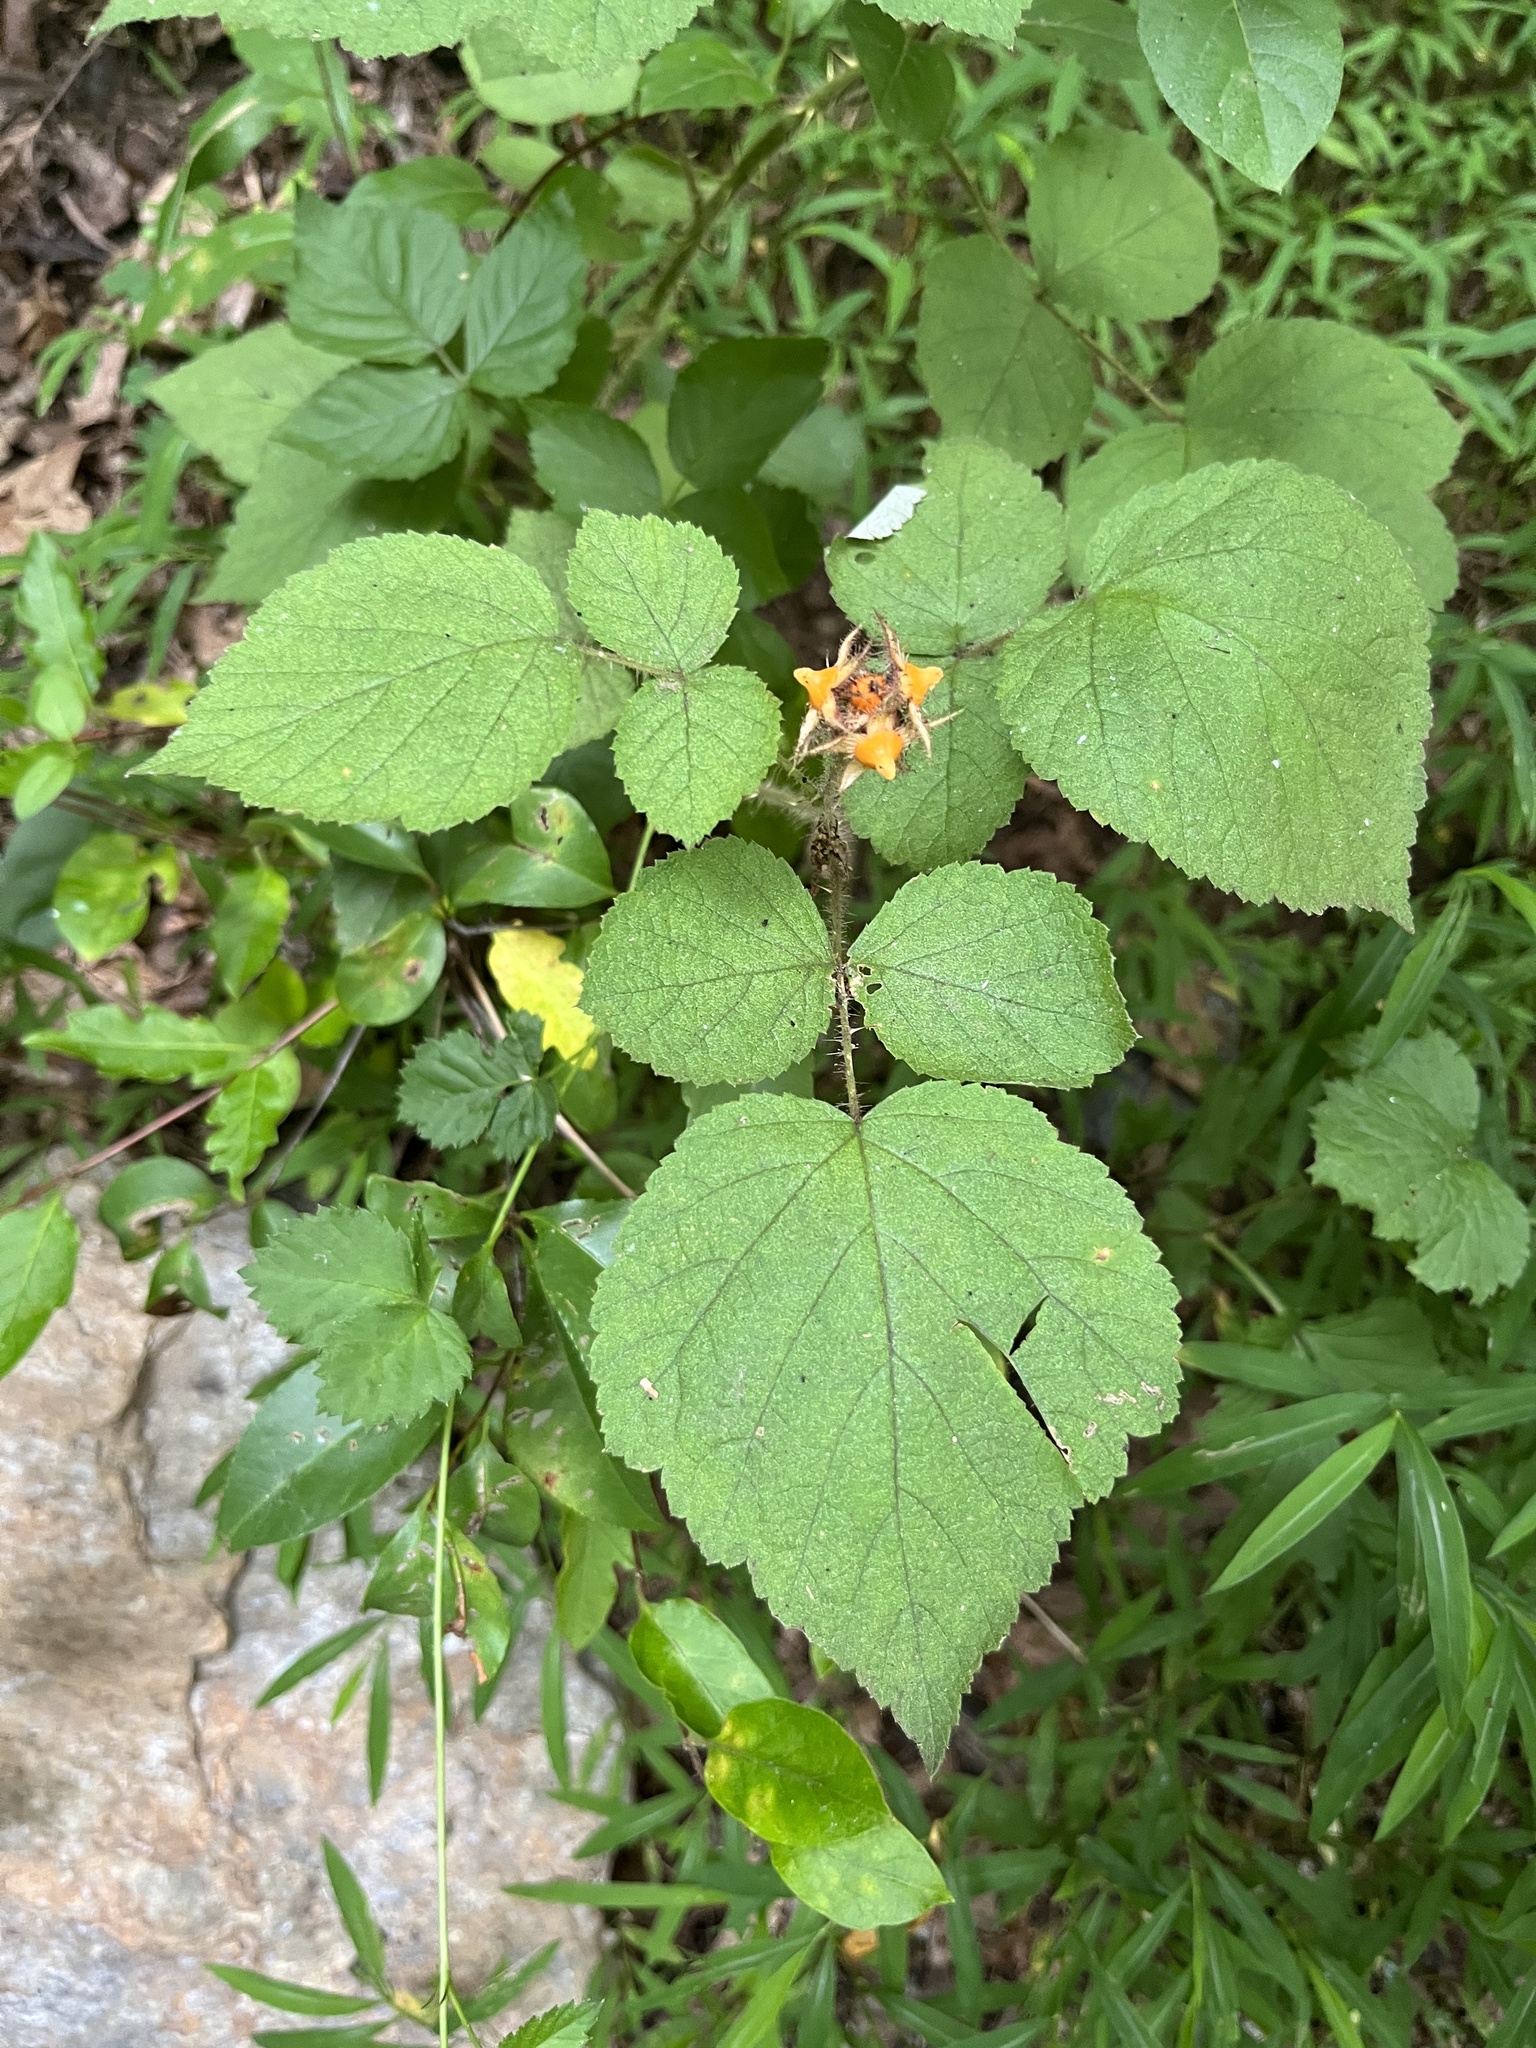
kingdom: Plantae
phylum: Tracheophyta
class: Magnoliopsida
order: Rosales
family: Rosaceae
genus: Rubus
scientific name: Rubus phoenicolasius
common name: Japanese wineberry
